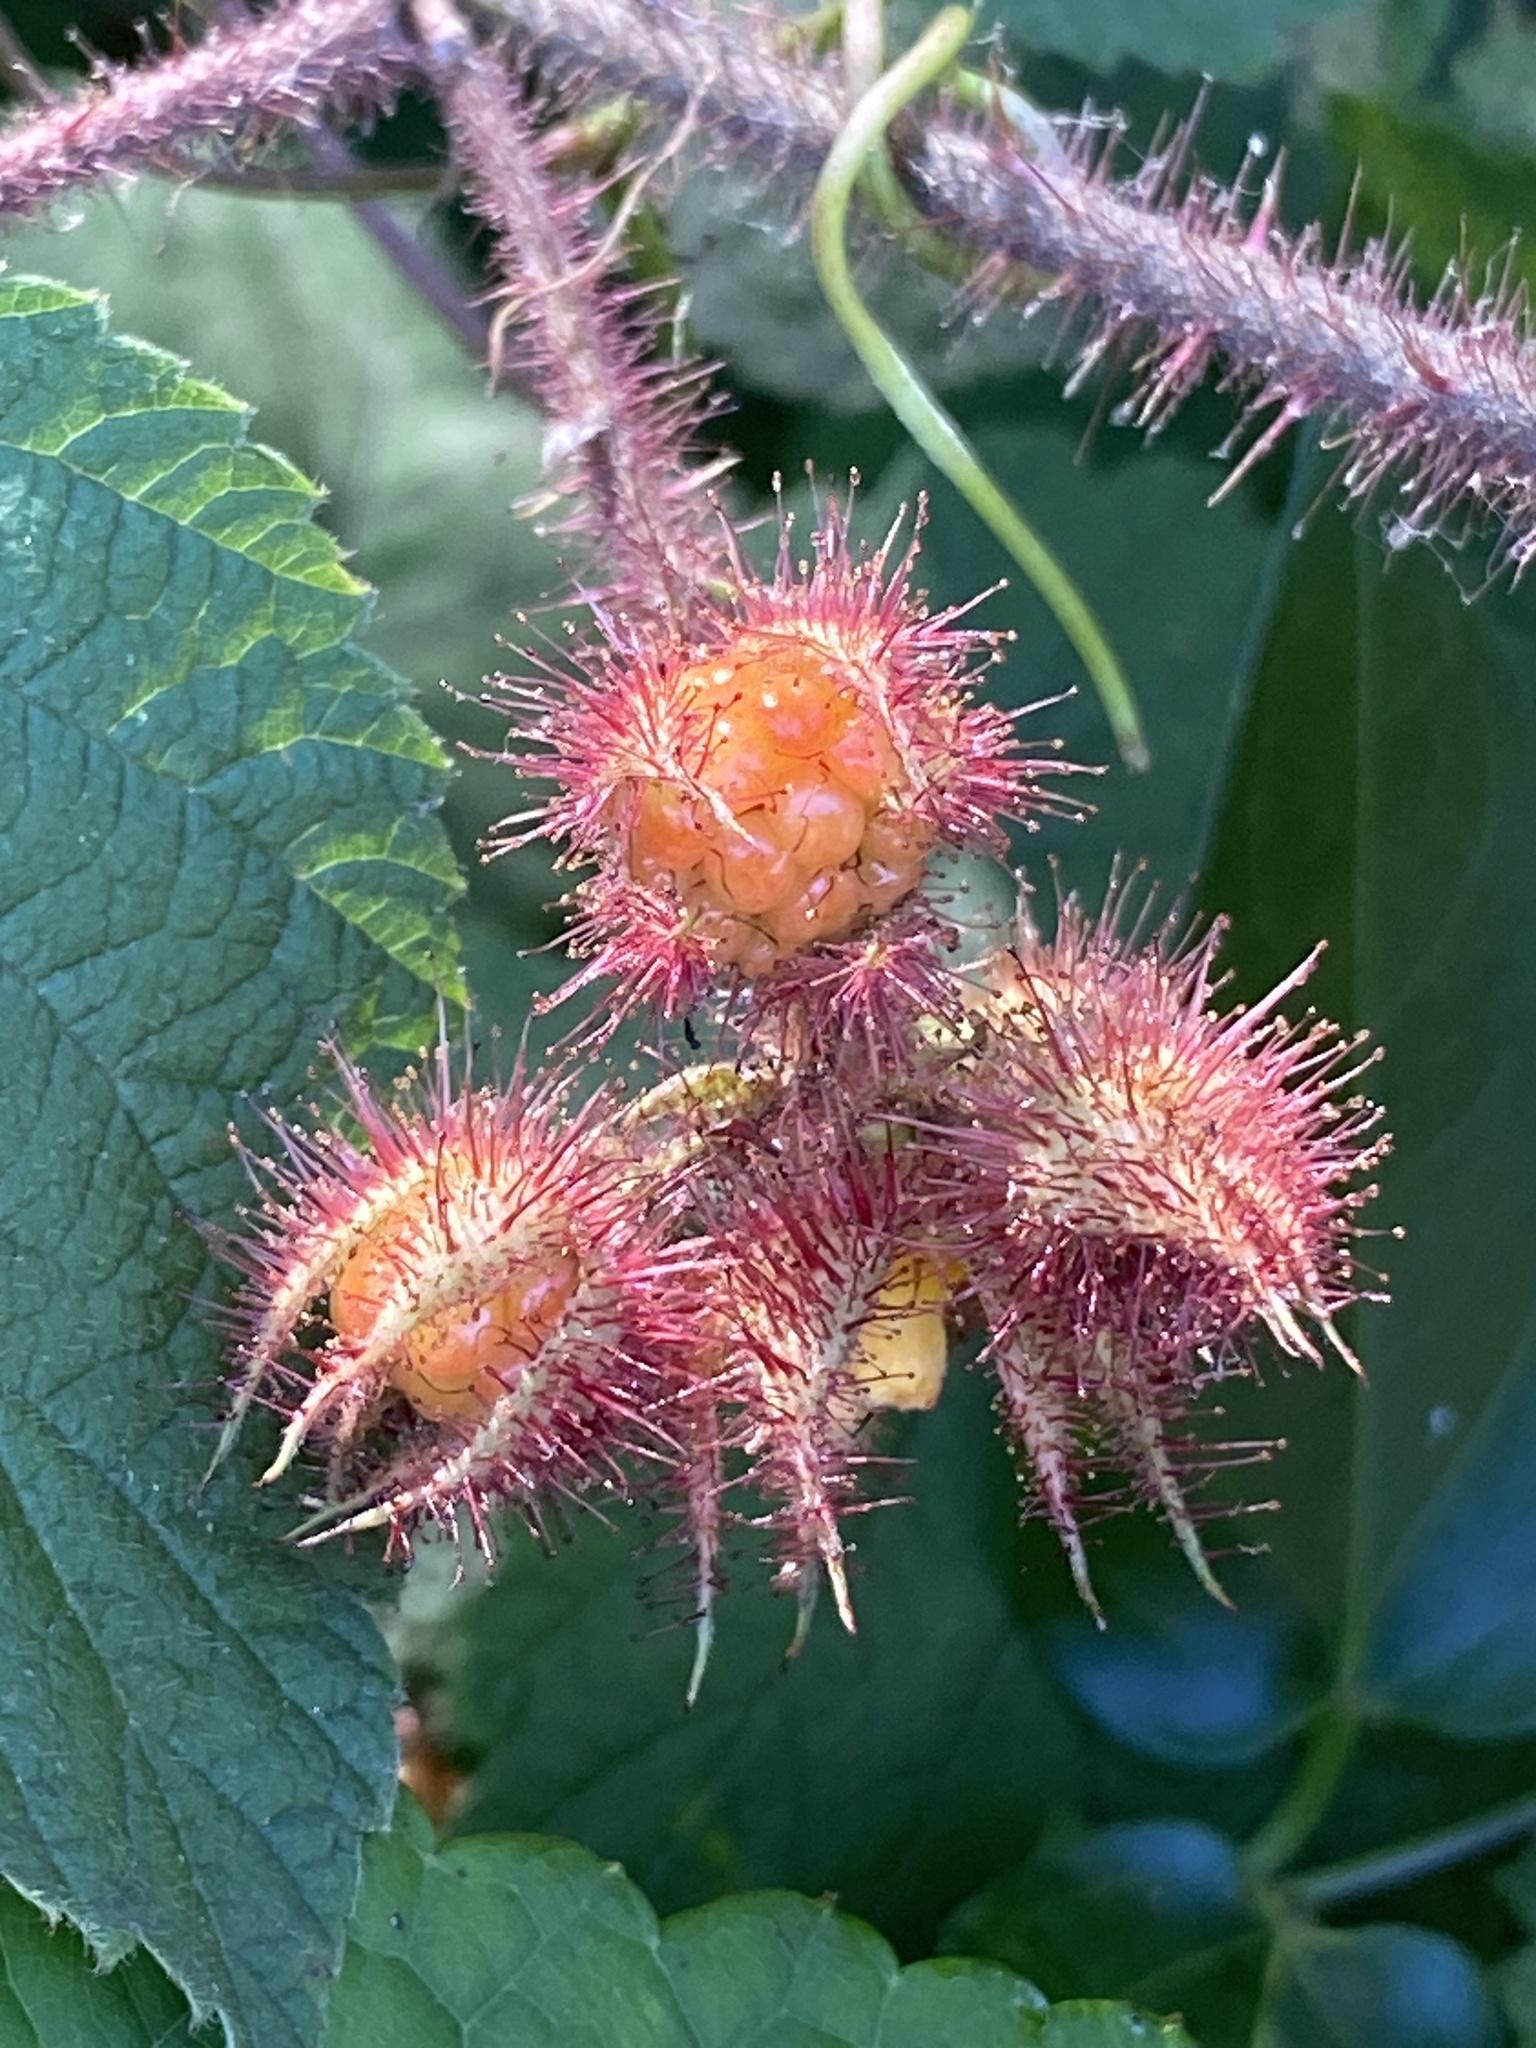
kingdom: Plantae
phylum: Tracheophyta
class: Magnoliopsida
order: Rosales
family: Rosaceae
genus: Rubus
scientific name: Rubus phoenicolasius
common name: Japanese wineberry
